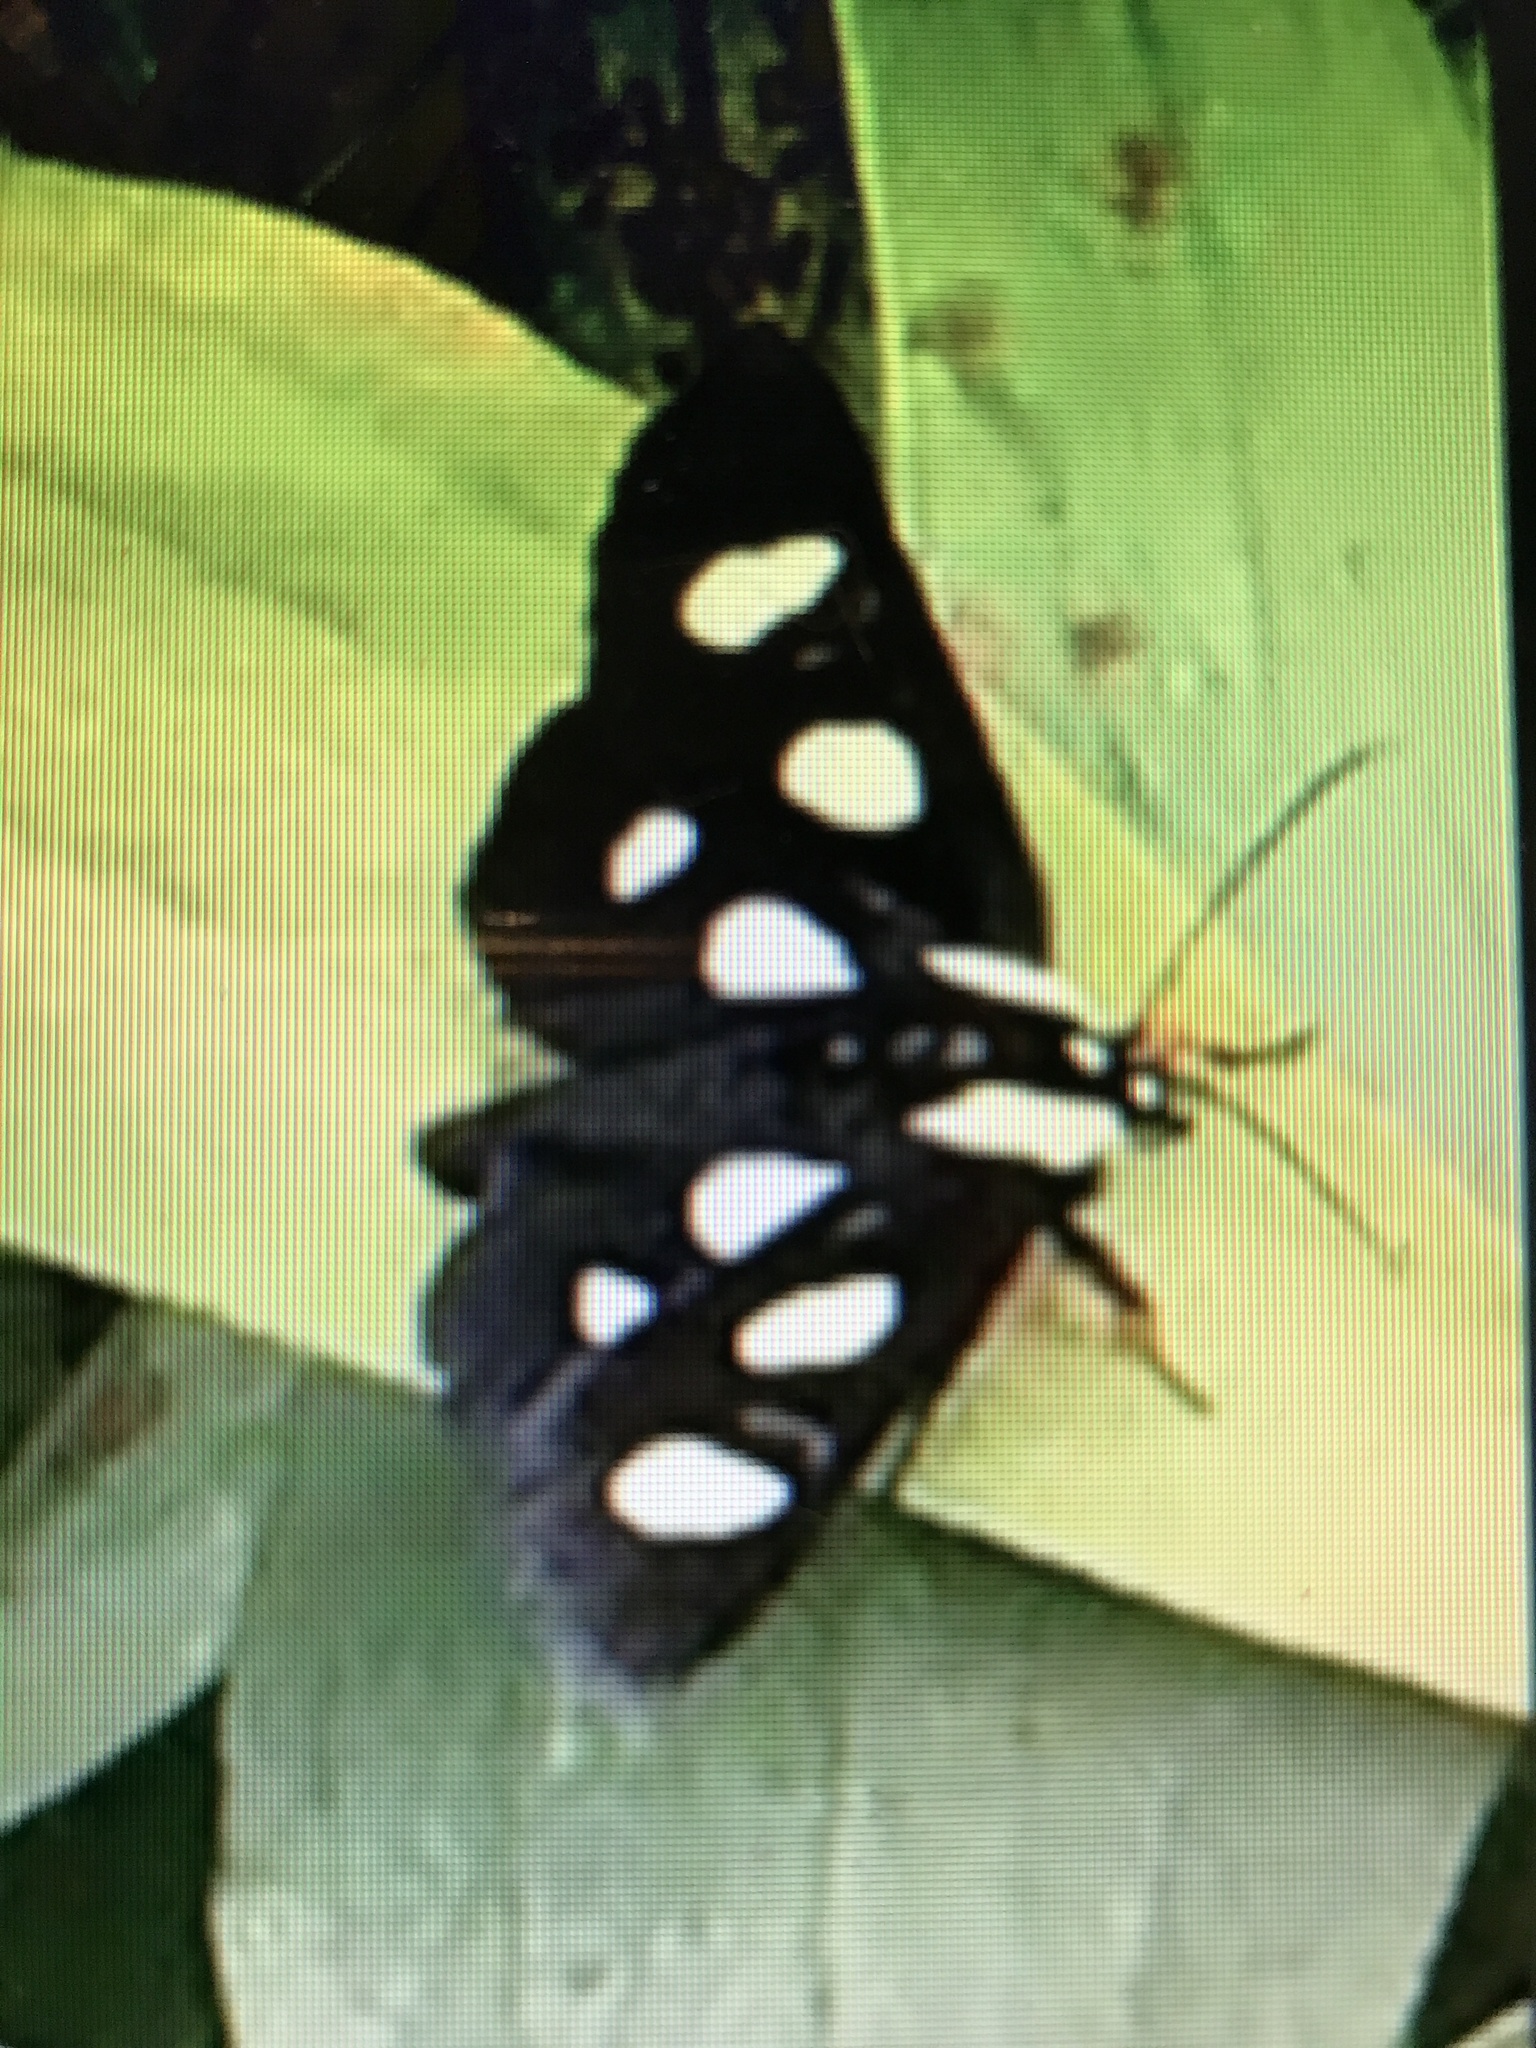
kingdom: Animalia
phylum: Arthropoda
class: Insecta
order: Lepidoptera
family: Noctuidae
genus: Alypia
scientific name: Alypia octomaculata
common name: Eight-spotted forester
